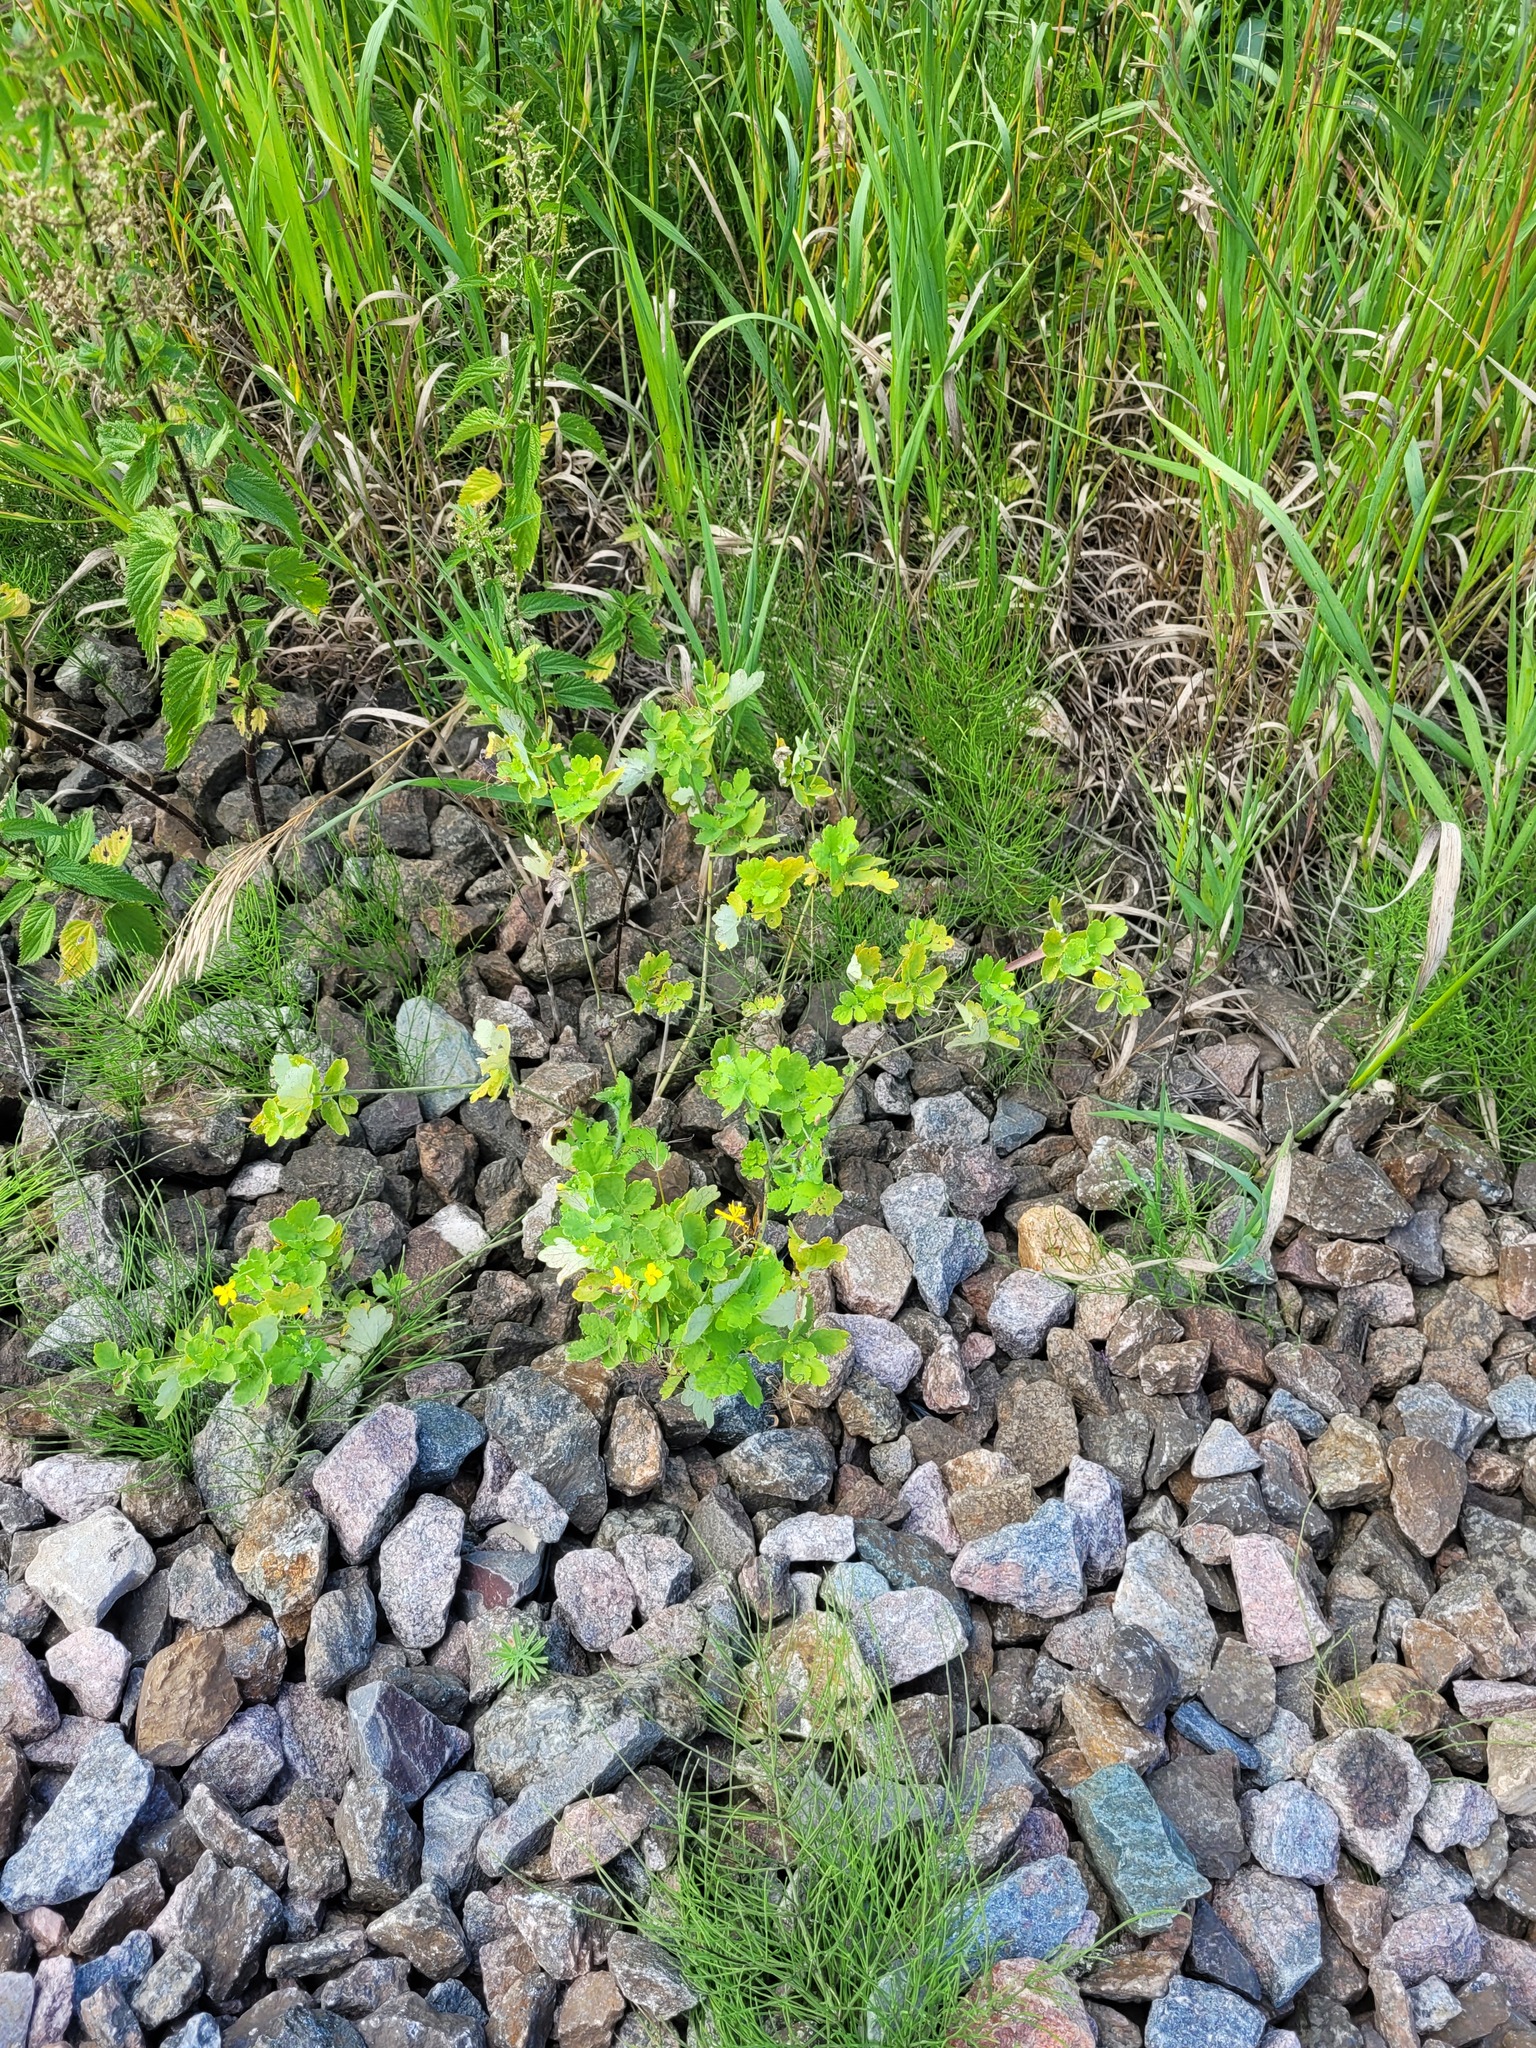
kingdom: Plantae
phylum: Tracheophyta
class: Magnoliopsida
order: Ranunculales
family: Papaveraceae
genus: Chelidonium
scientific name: Chelidonium majus
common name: Greater celandine
